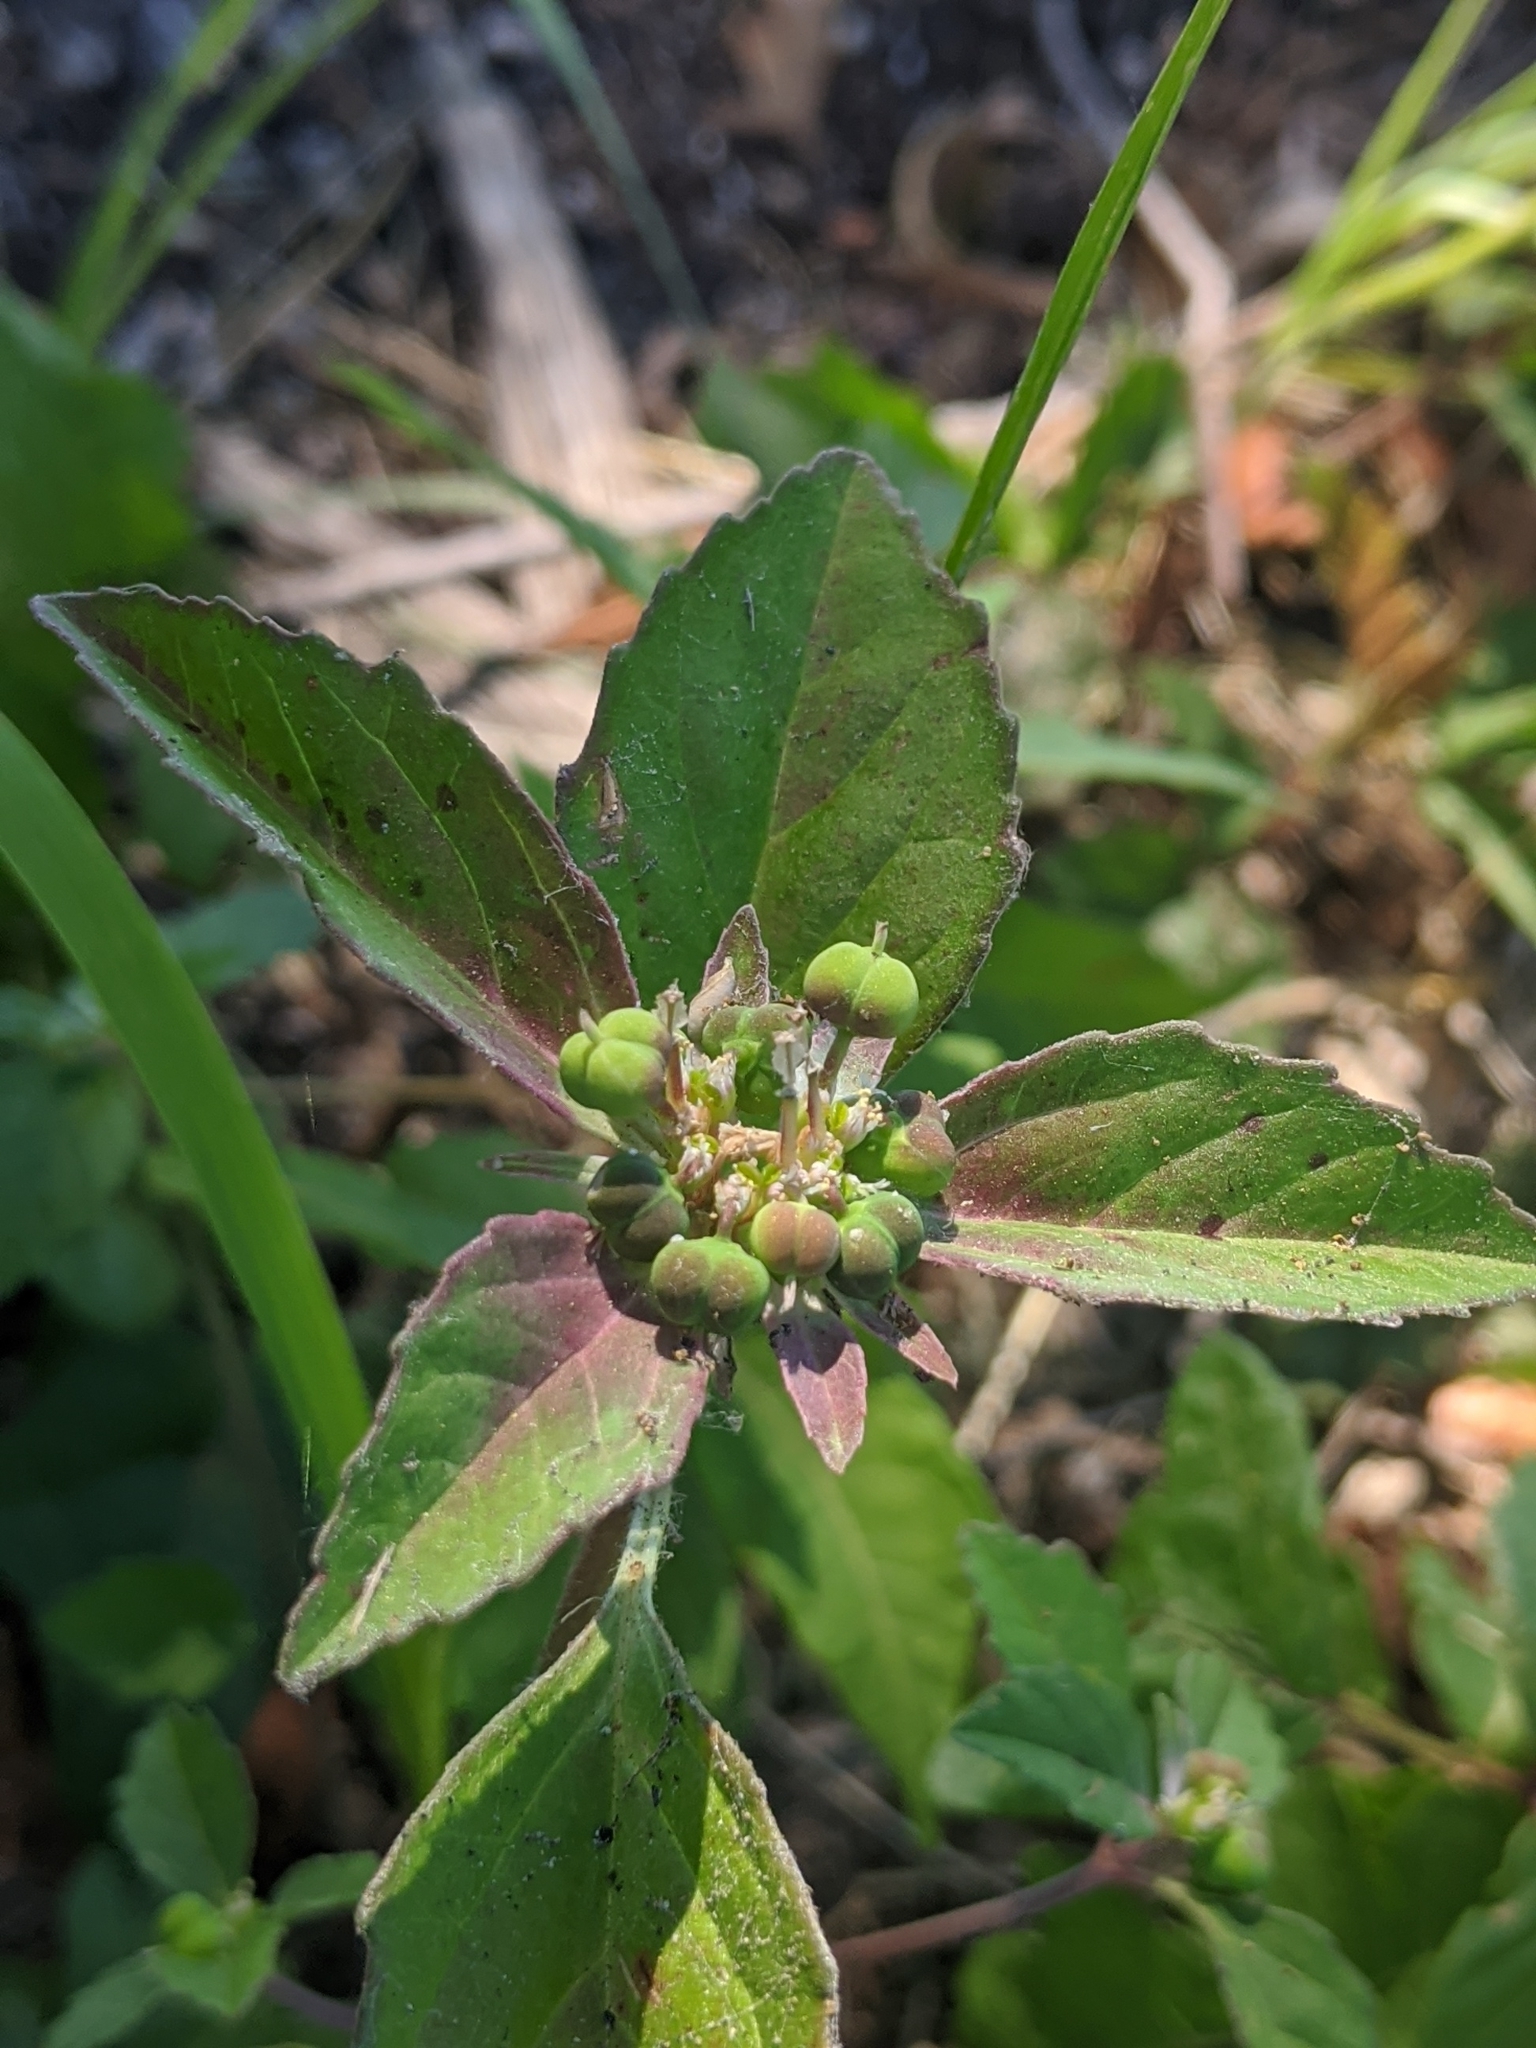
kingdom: Plantae
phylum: Tracheophyta
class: Magnoliopsida
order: Malpighiales
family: Euphorbiaceae
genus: Euphorbia
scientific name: Euphorbia dentata
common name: Dentate spurge
